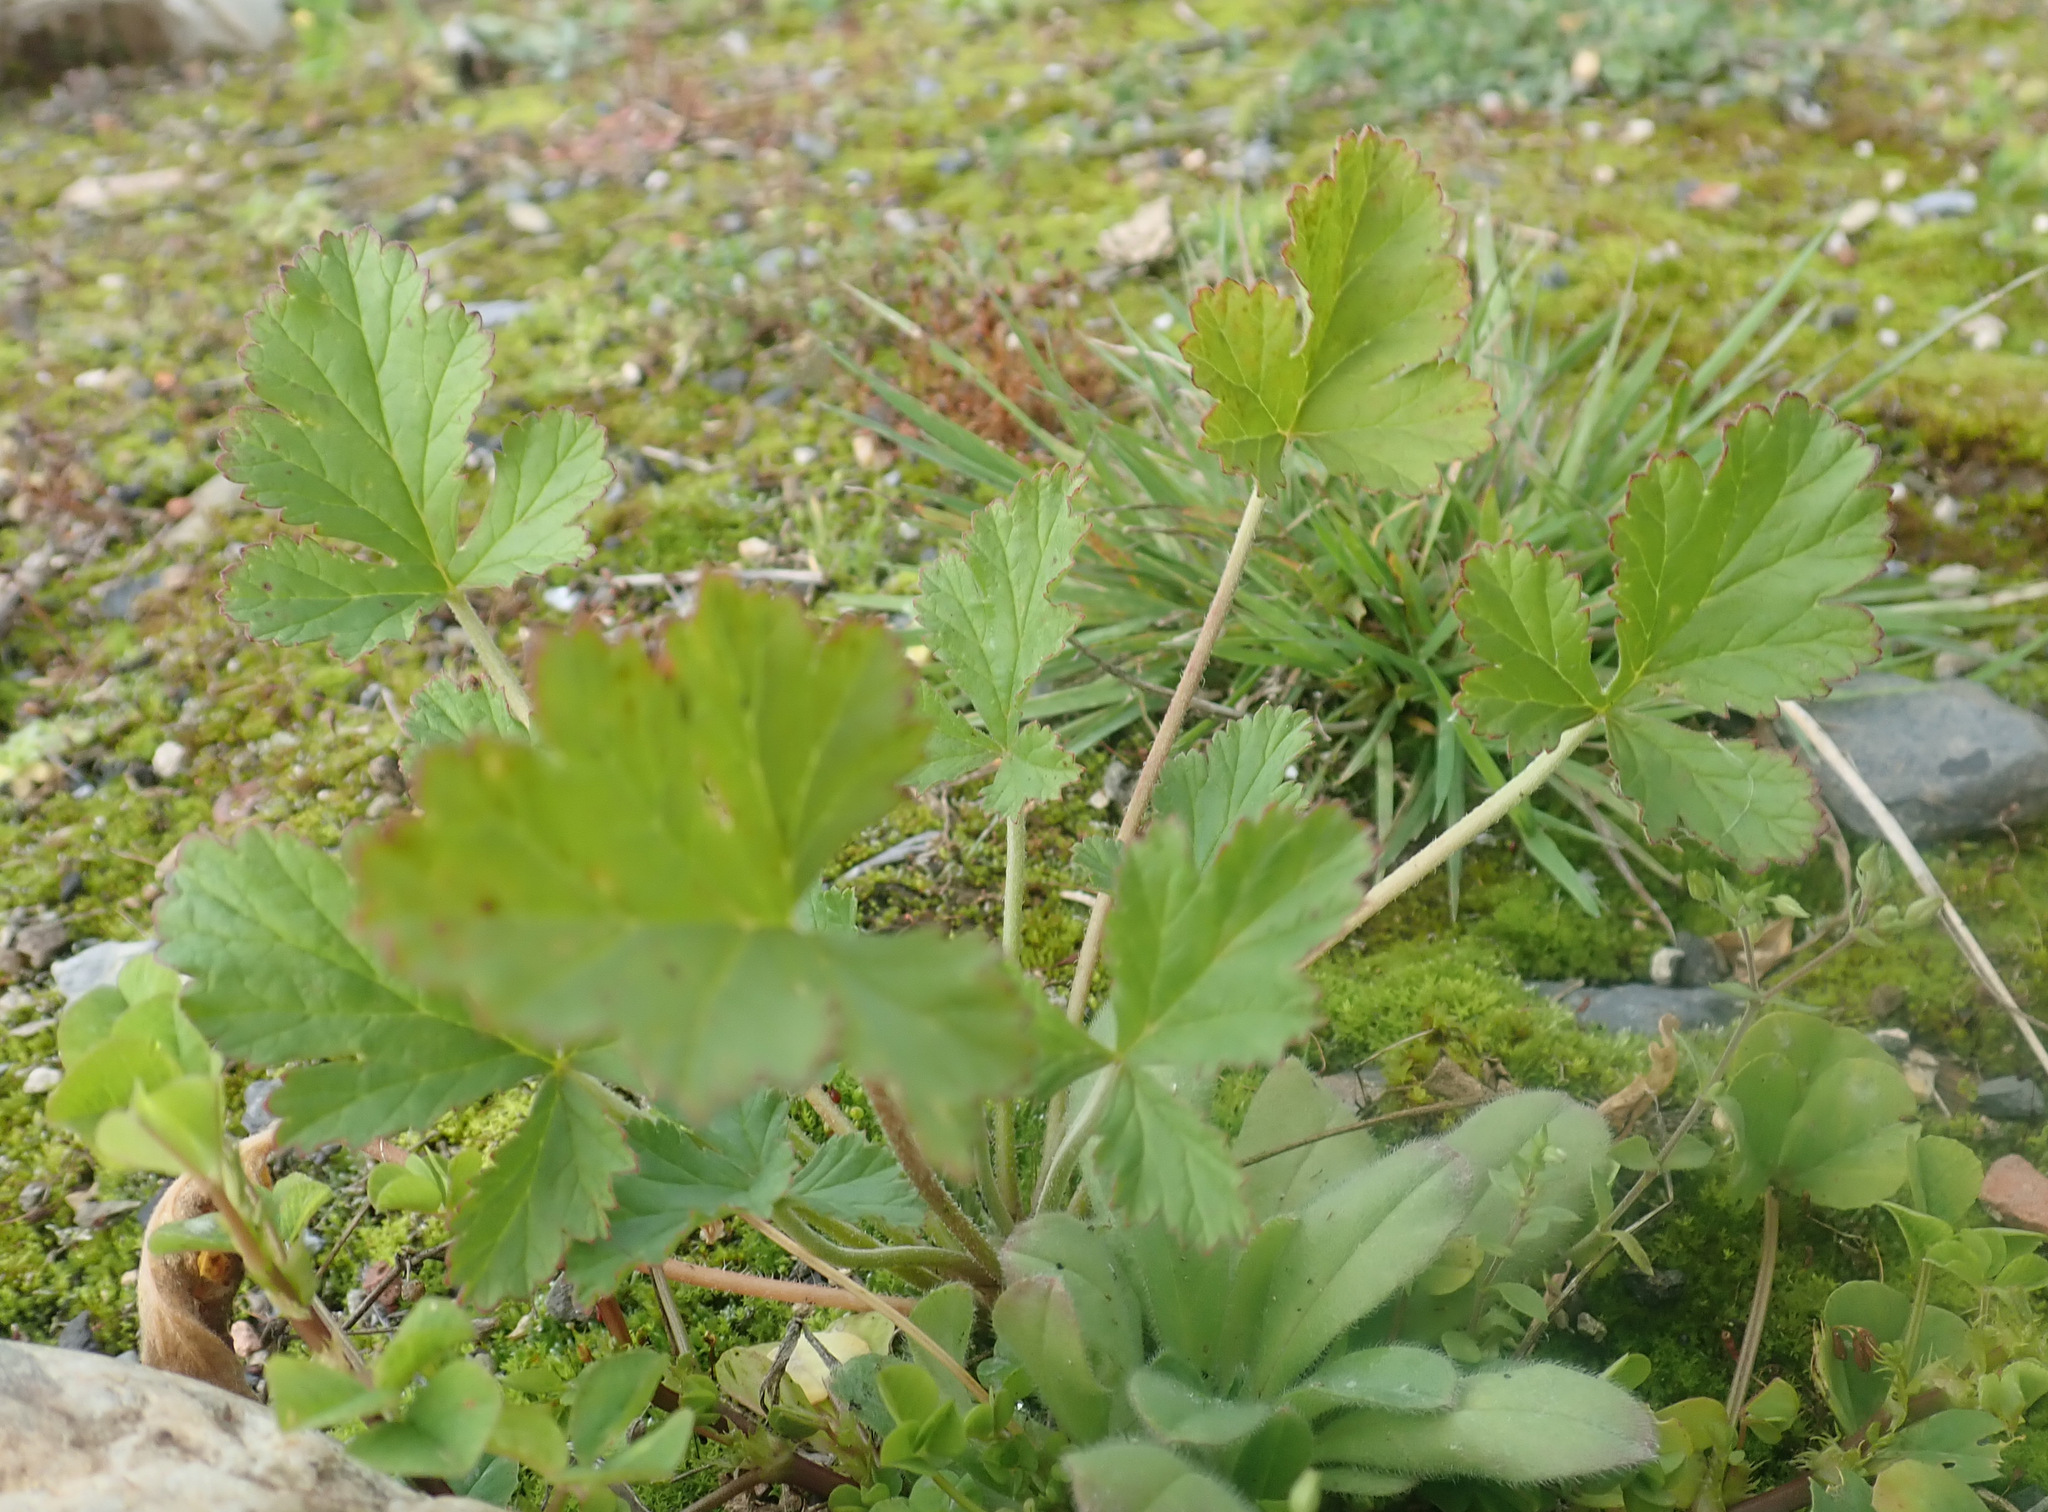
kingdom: Plantae
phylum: Tracheophyta
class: Magnoliopsida
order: Geraniales
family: Geraniaceae
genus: Erodium
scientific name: Erodium crinitum
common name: Eastern stork's-bill
